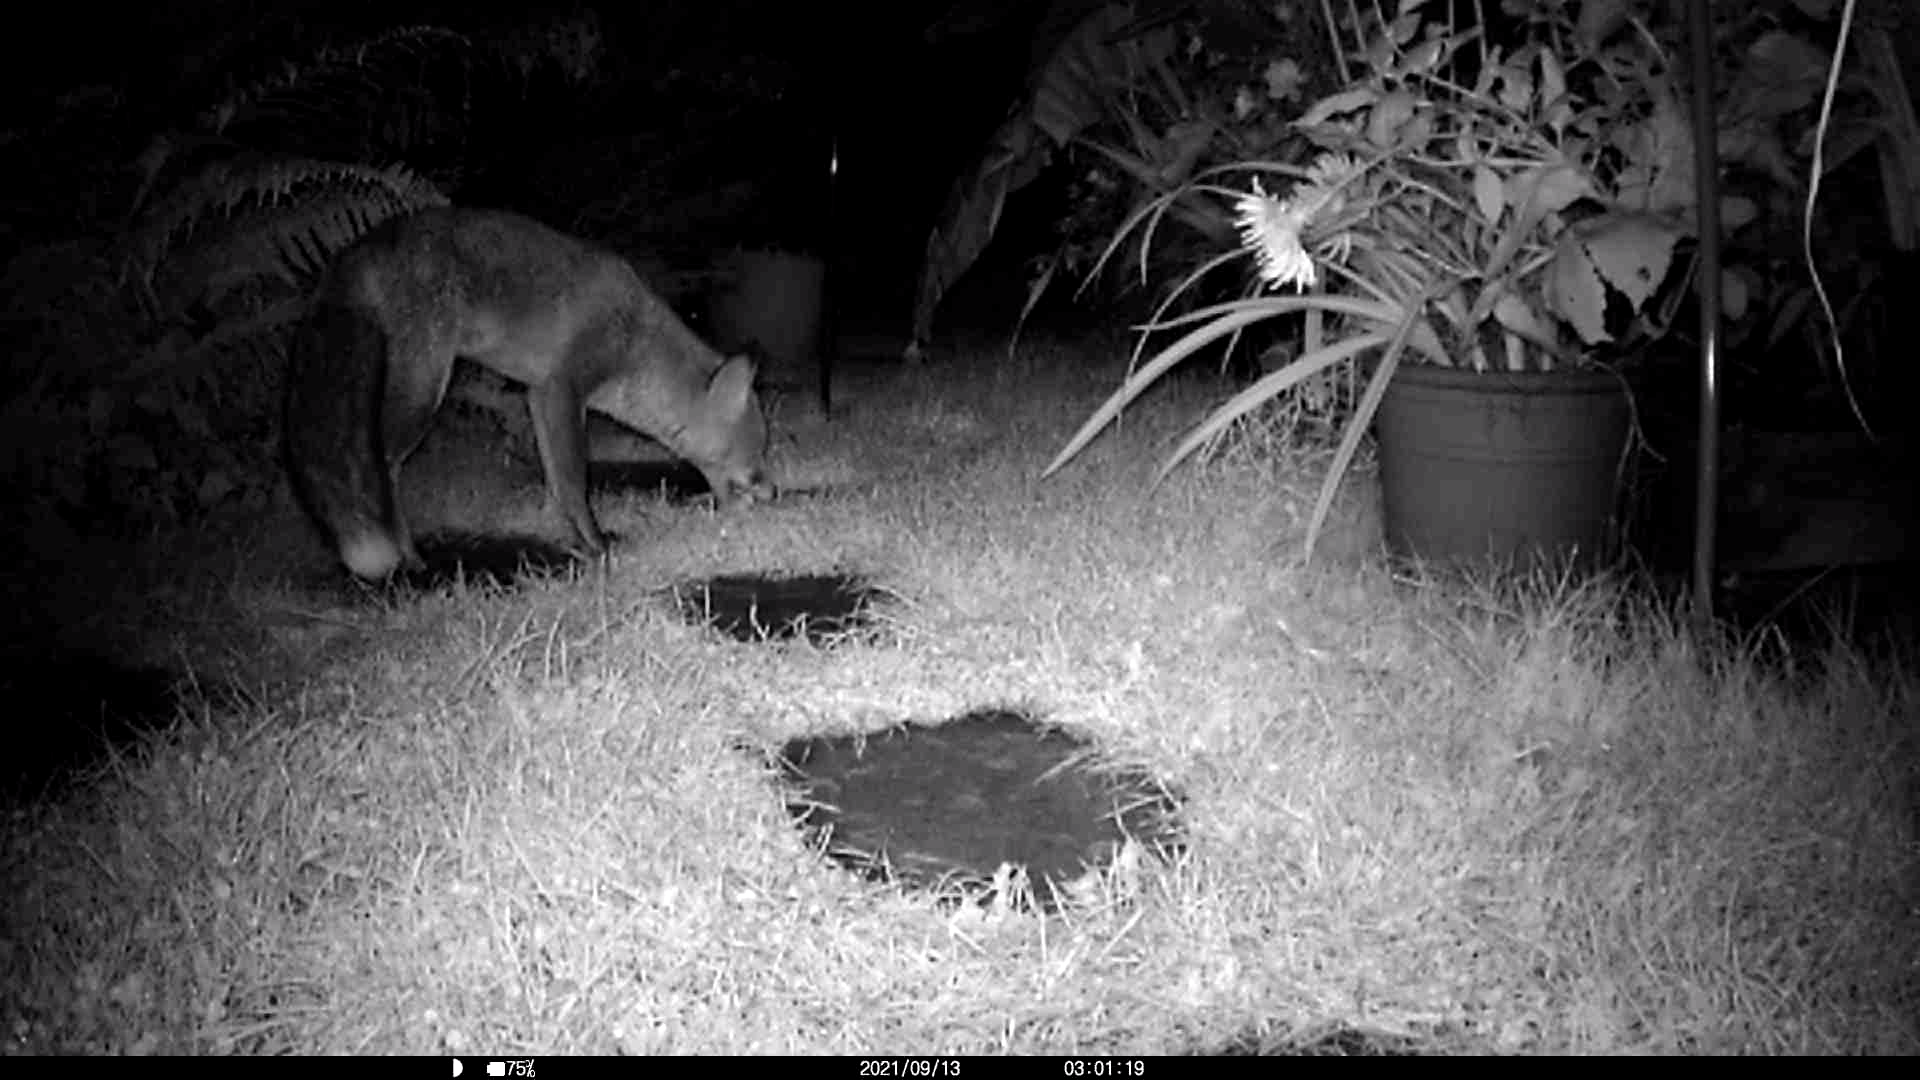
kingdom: Animalia
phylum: Chordata
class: Mammalia
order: Carnivora
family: Canidae
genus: Vulpes
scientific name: Vulpes vulpes
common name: Red fox
